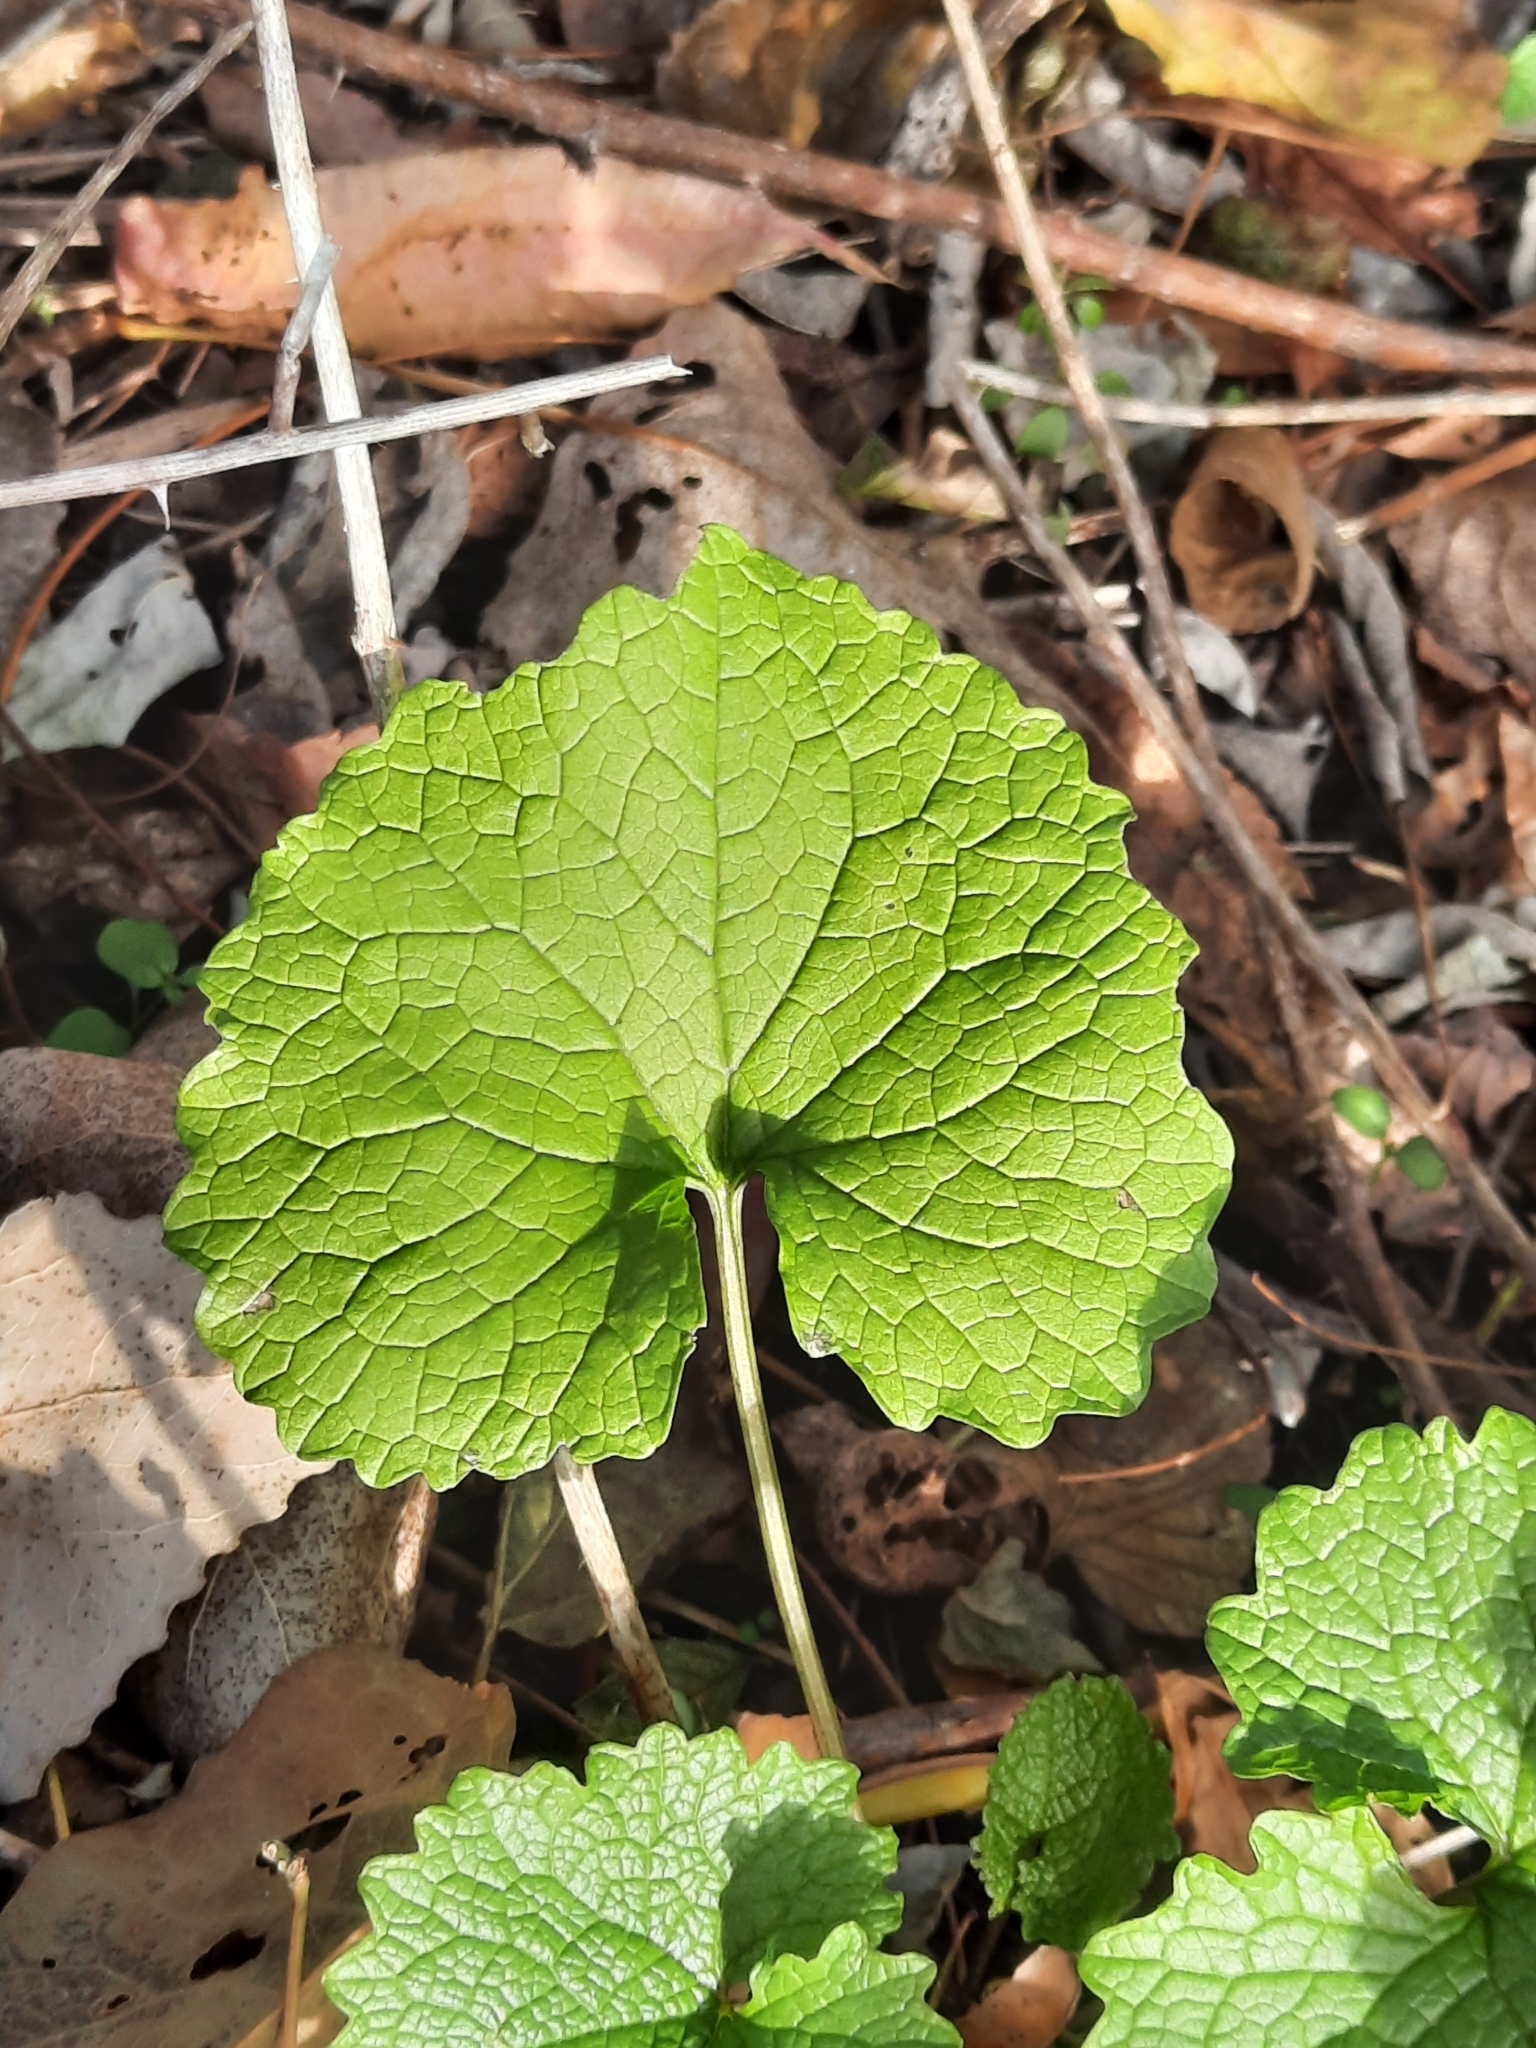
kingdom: Plantae
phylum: Tracheophyta
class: Magnoliopsida
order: Brassicales
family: Brassicaceae
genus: Alliaria
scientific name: Alliaria petiolata
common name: Garlic mustard
